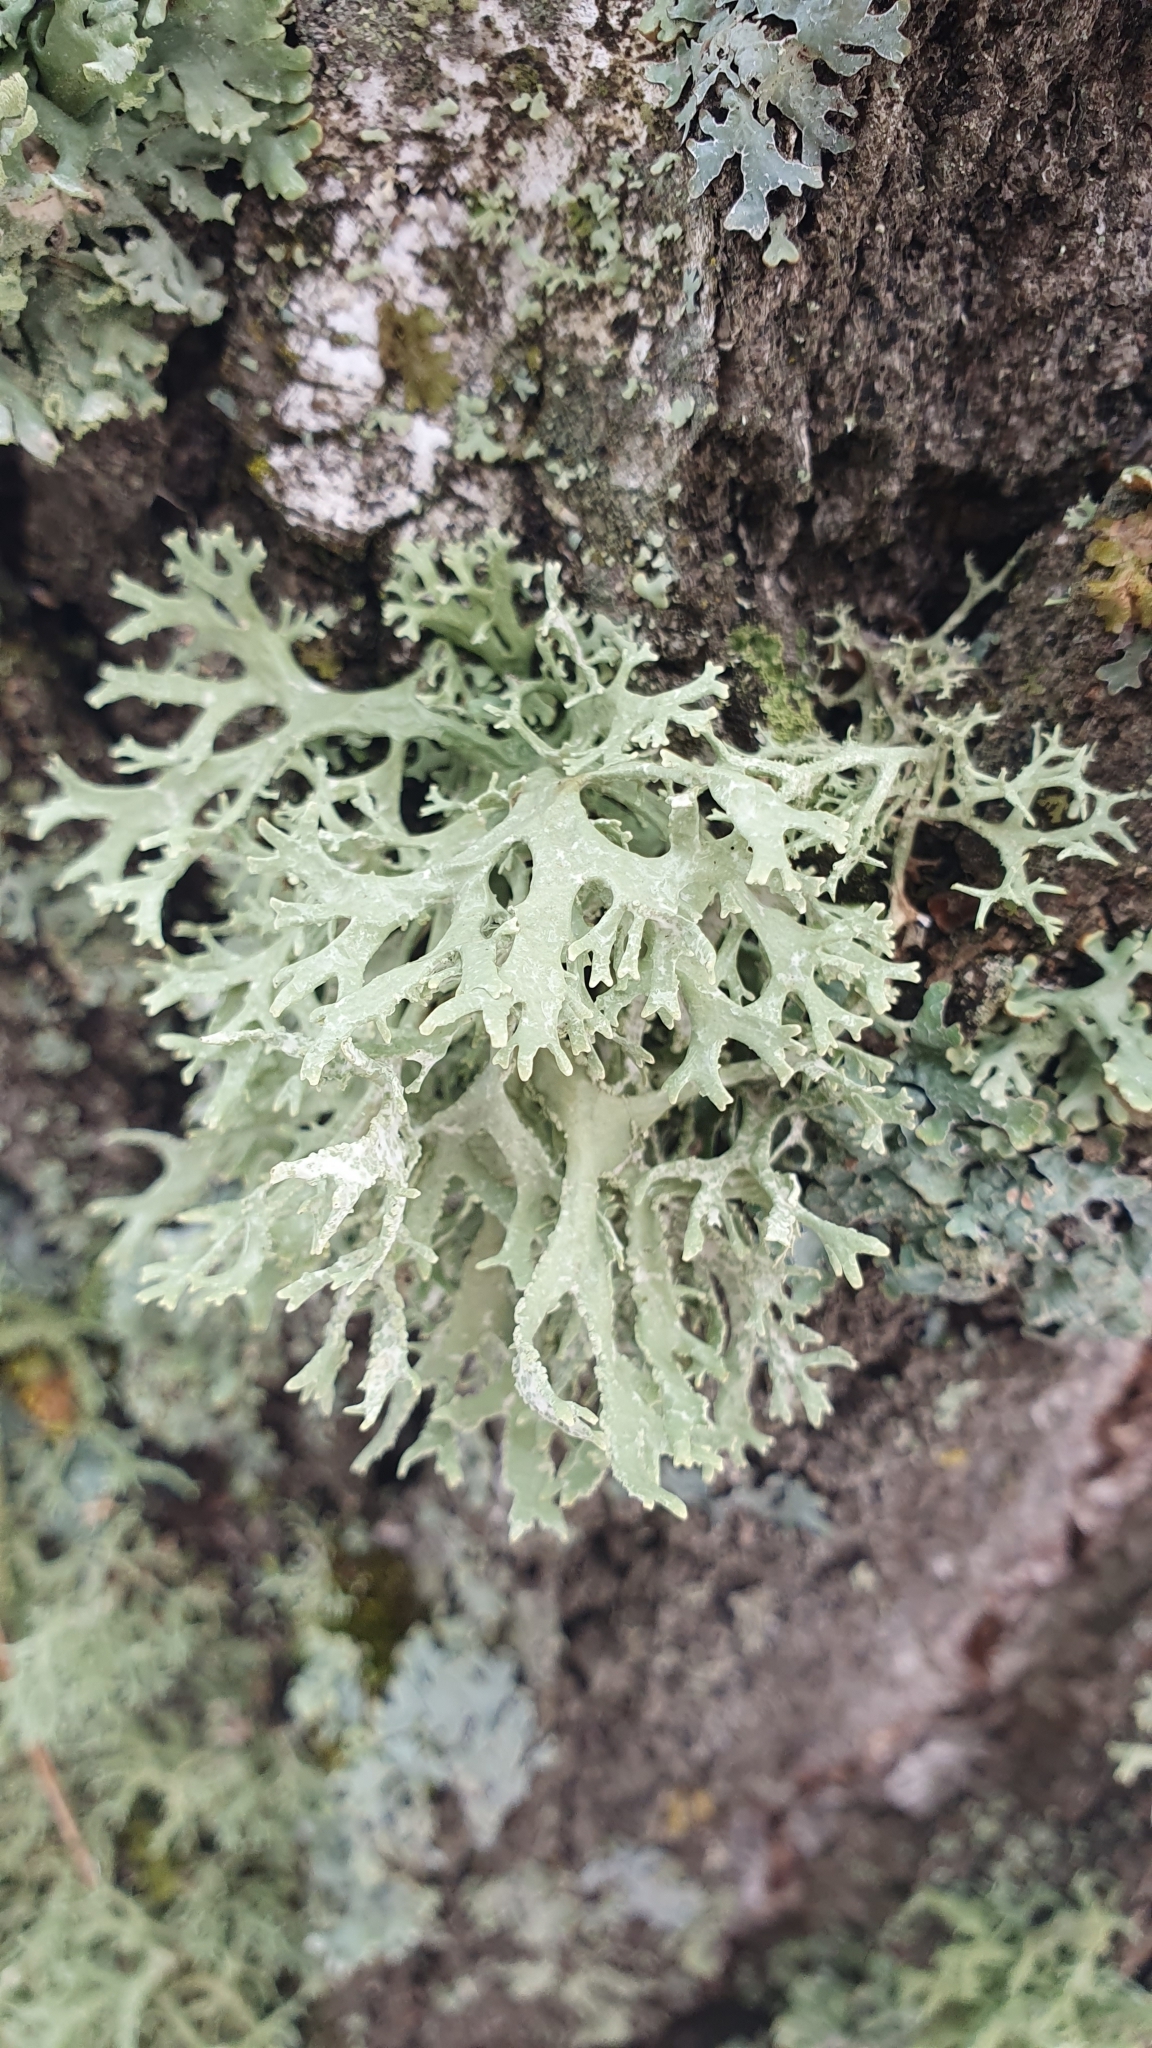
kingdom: Fungi
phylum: Ascomycota
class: Lecanoromycetes
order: Lecanorales
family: Parmeliaceae
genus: Evernia
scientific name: Evernia prunastri
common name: Oak moss
